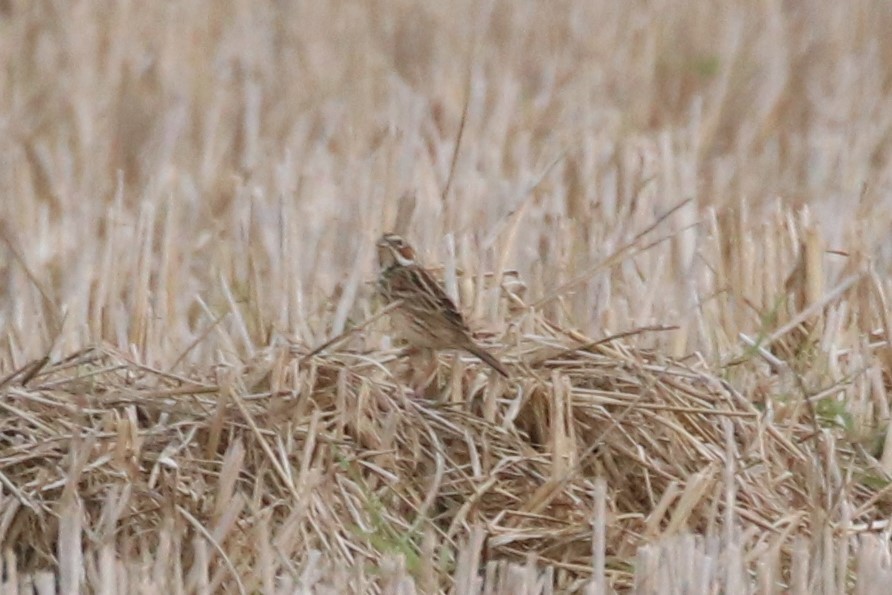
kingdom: Animalia
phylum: Chordata
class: Aves
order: Passeriformes
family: Emberizidae
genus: Emberiza
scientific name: Emberiza fucata
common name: Chestnut-eared bunting
